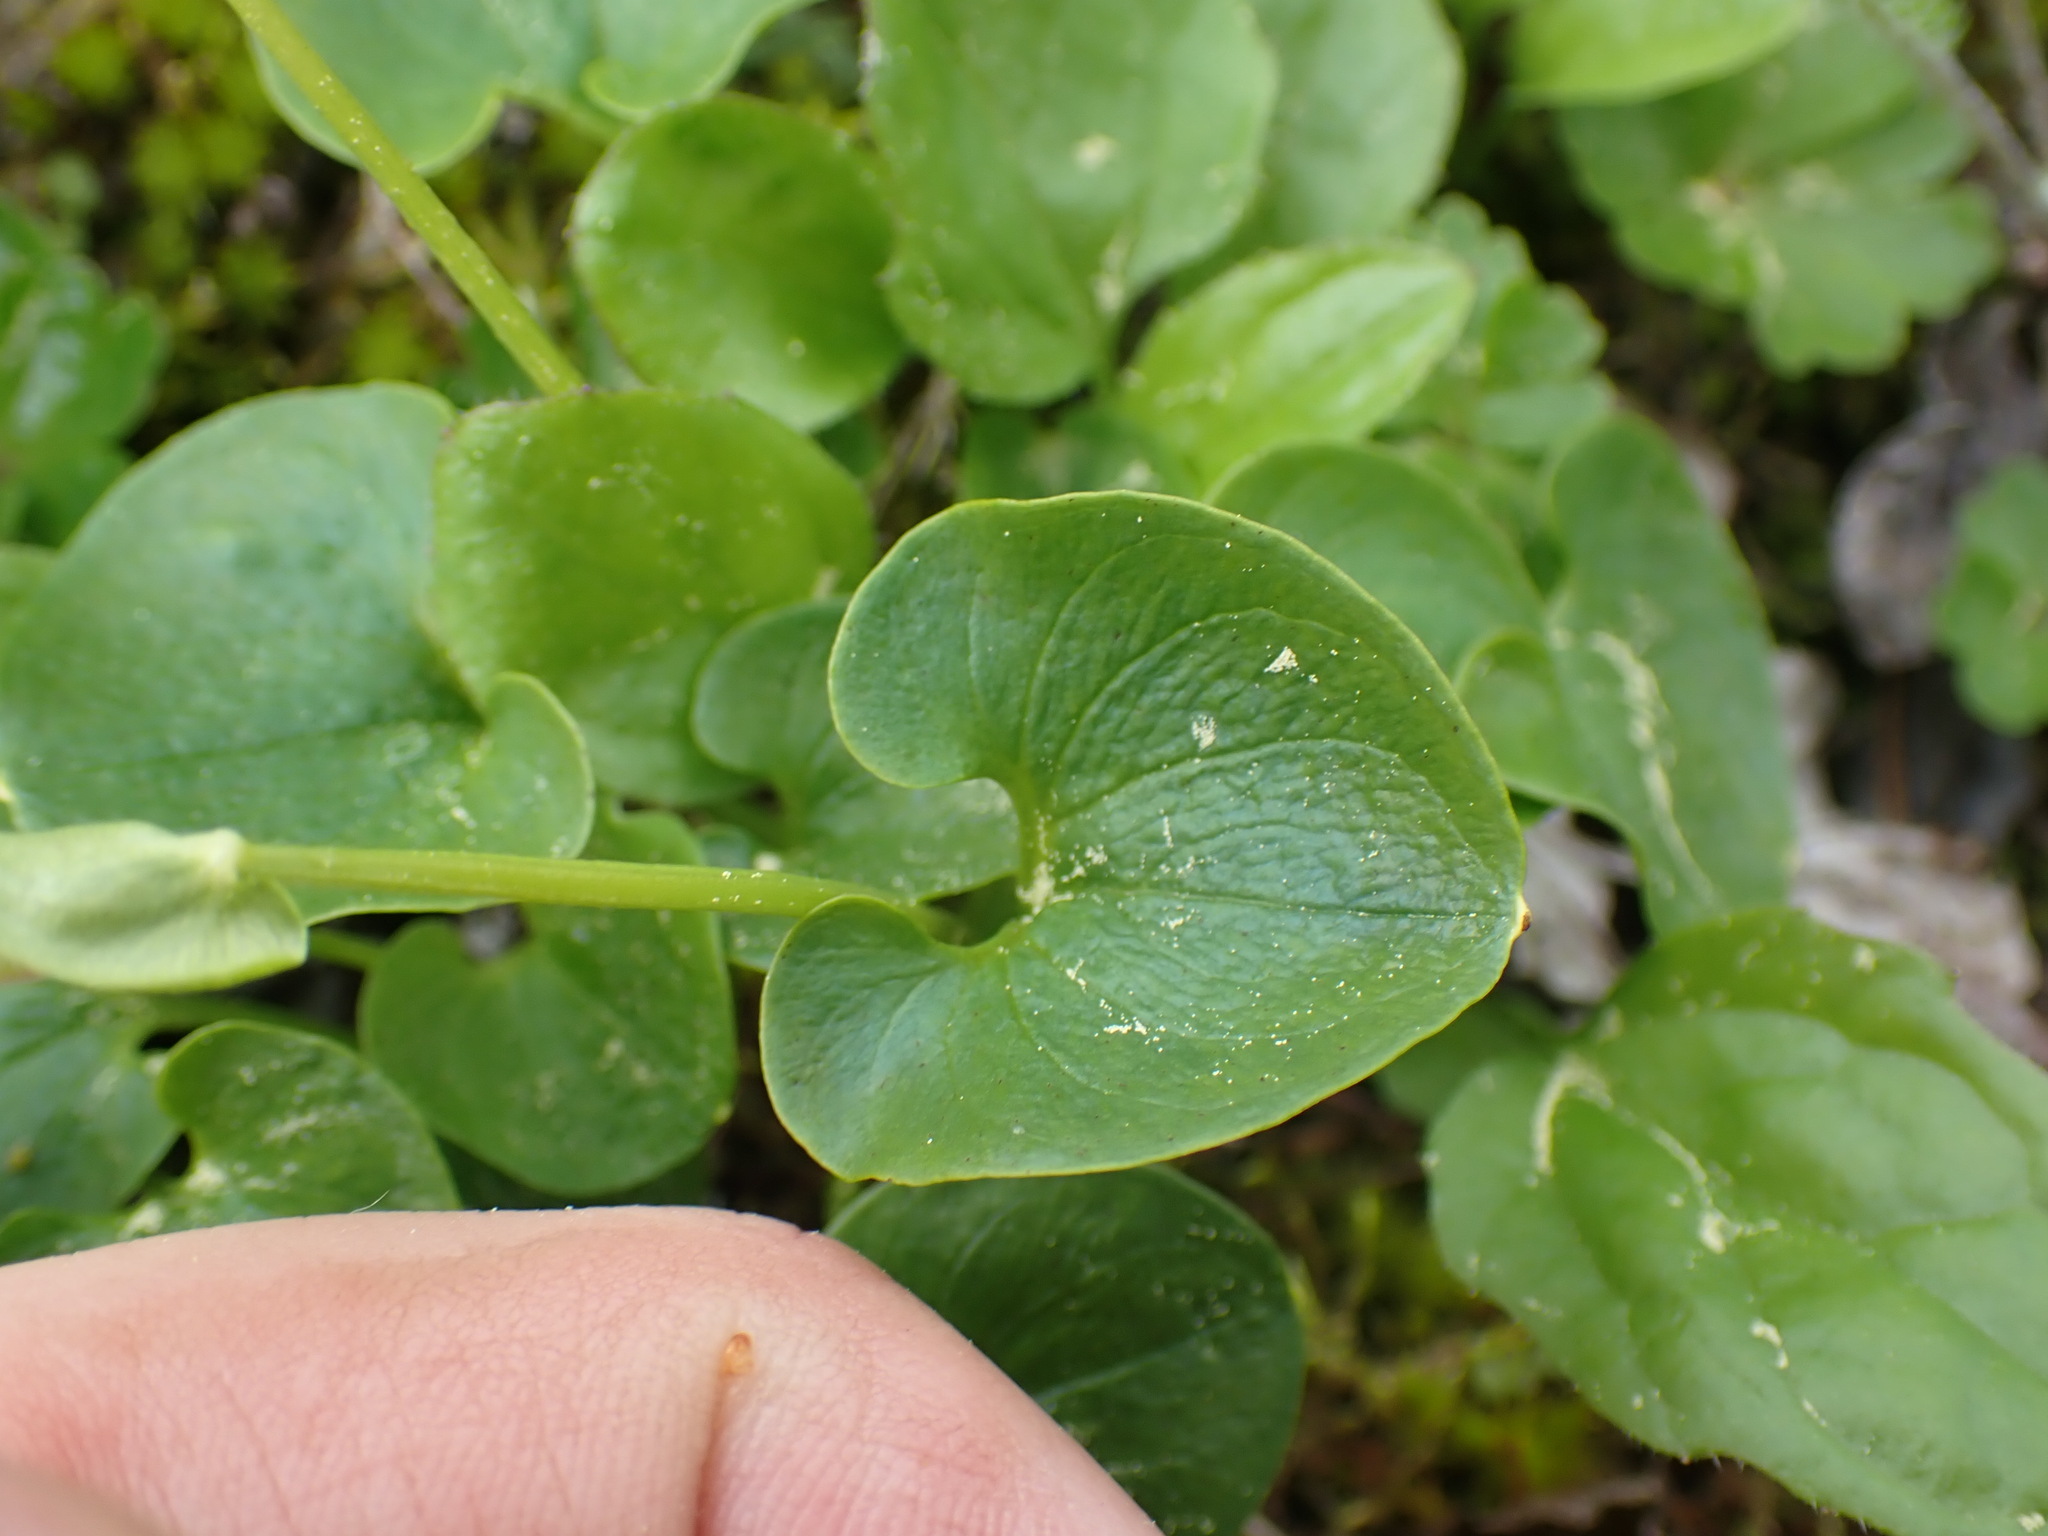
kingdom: Plantae
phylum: Tracheophyta
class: Magnoliopsida
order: Celastrales
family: Parnassiaceae
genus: Parnassia
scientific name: Parnassia fimbriata
